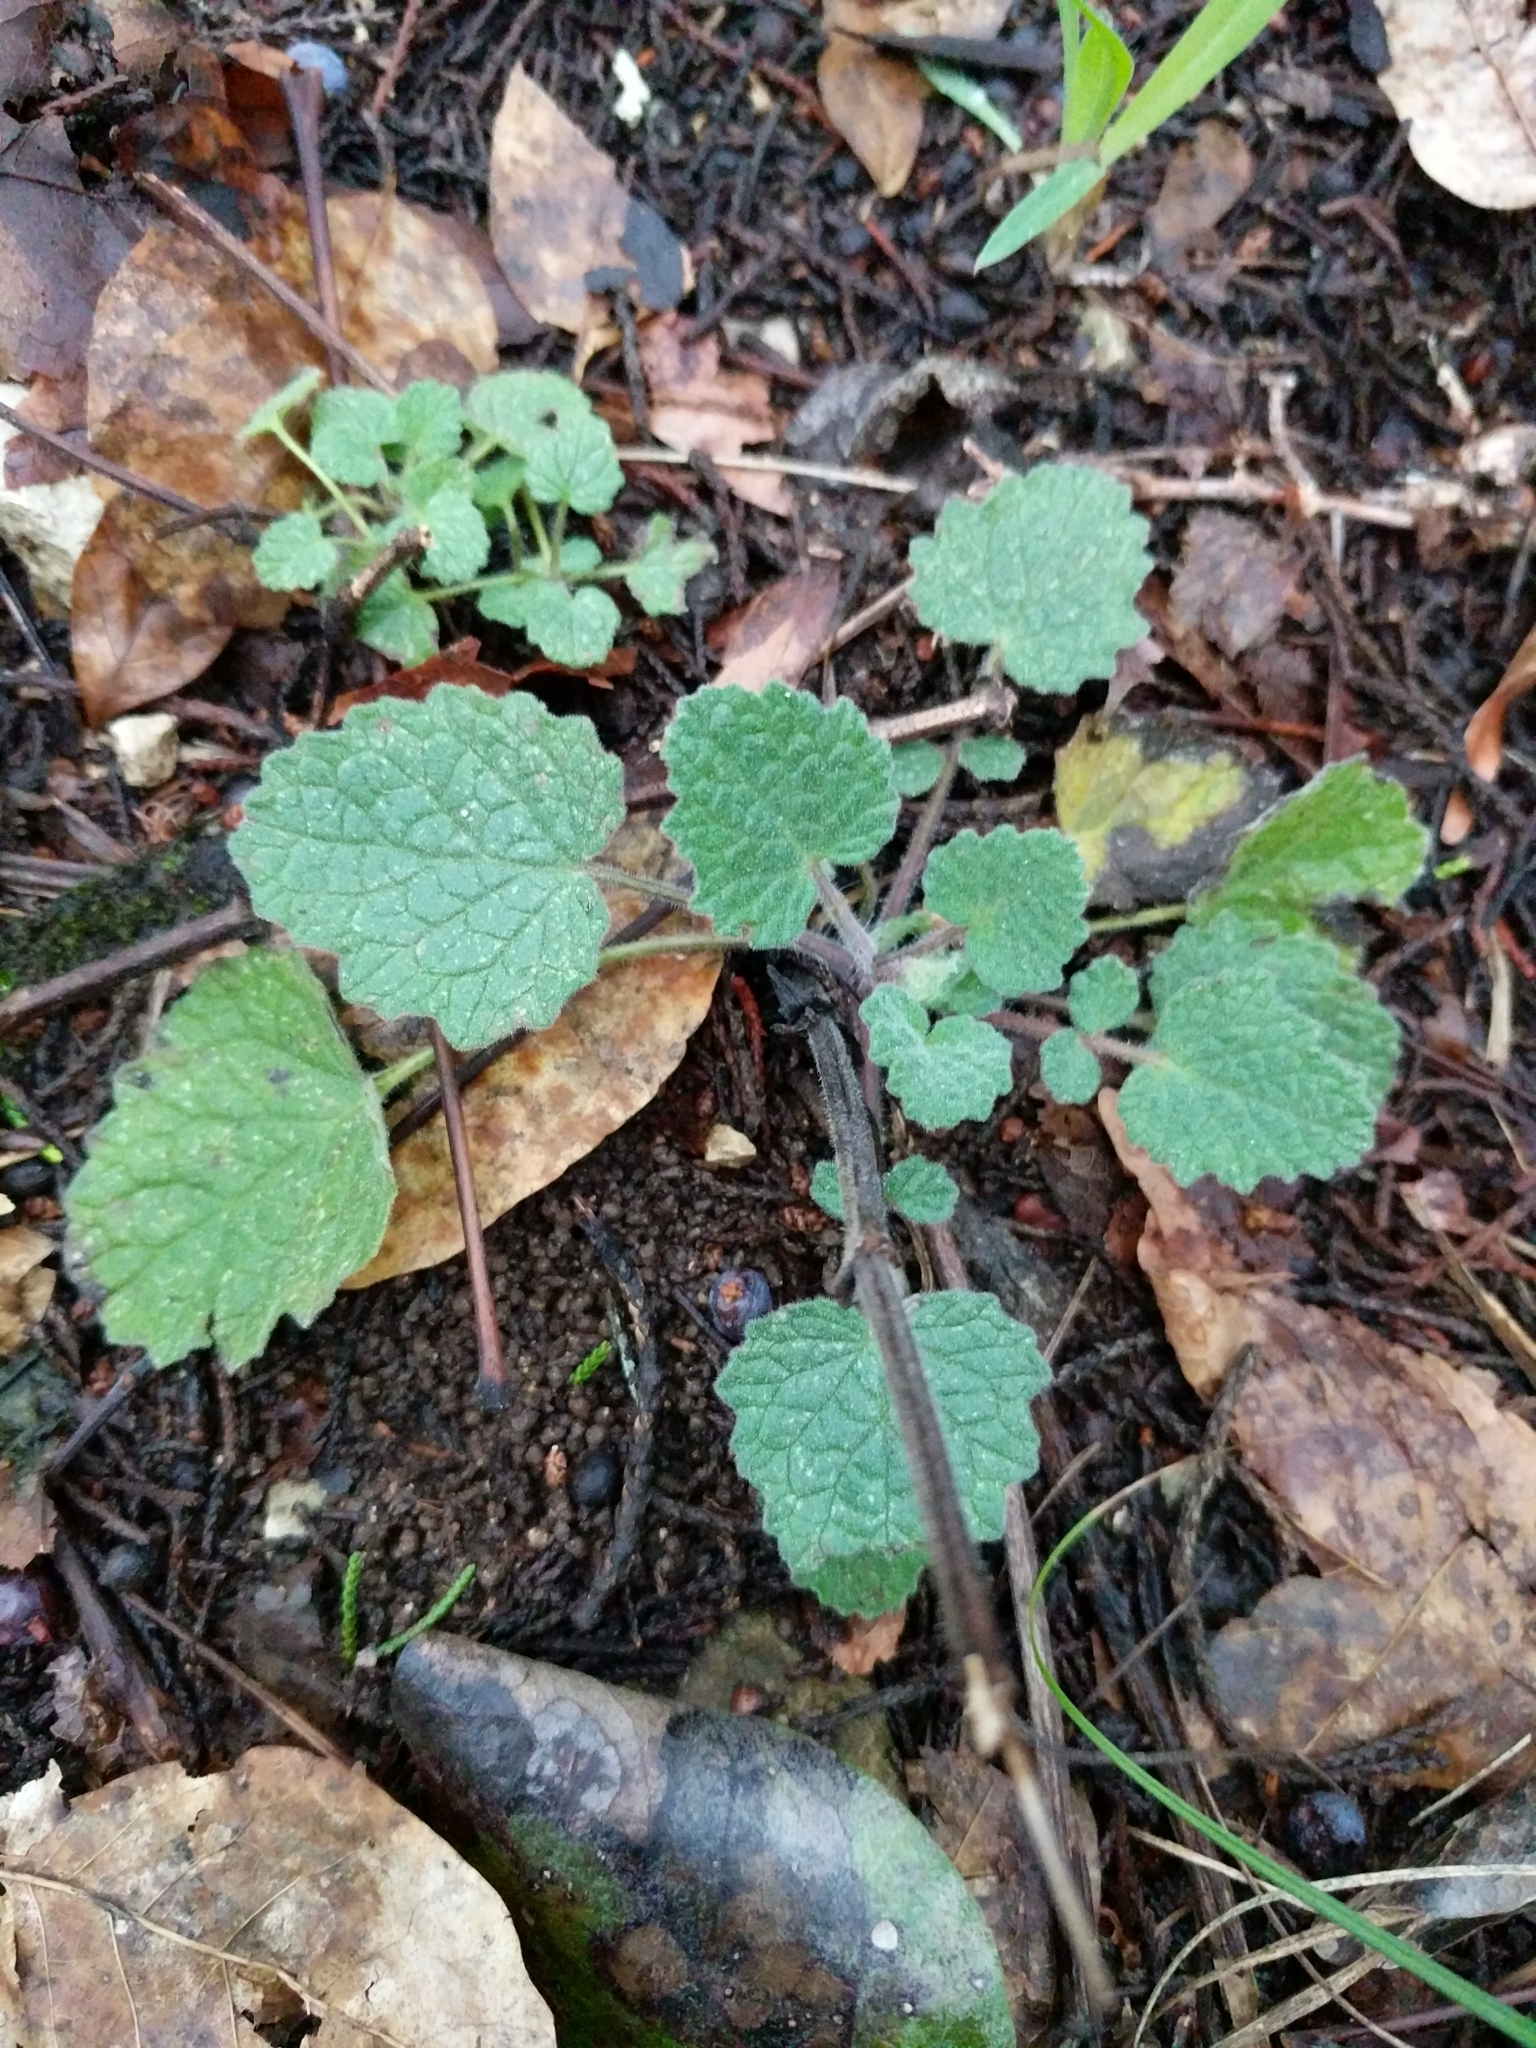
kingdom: Plantae
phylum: Tracheophyta
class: Magnoliopsida
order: Lamiales
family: Lamiaceae
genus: Salvia
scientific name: Salvia roemeriana
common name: Cedar sage
